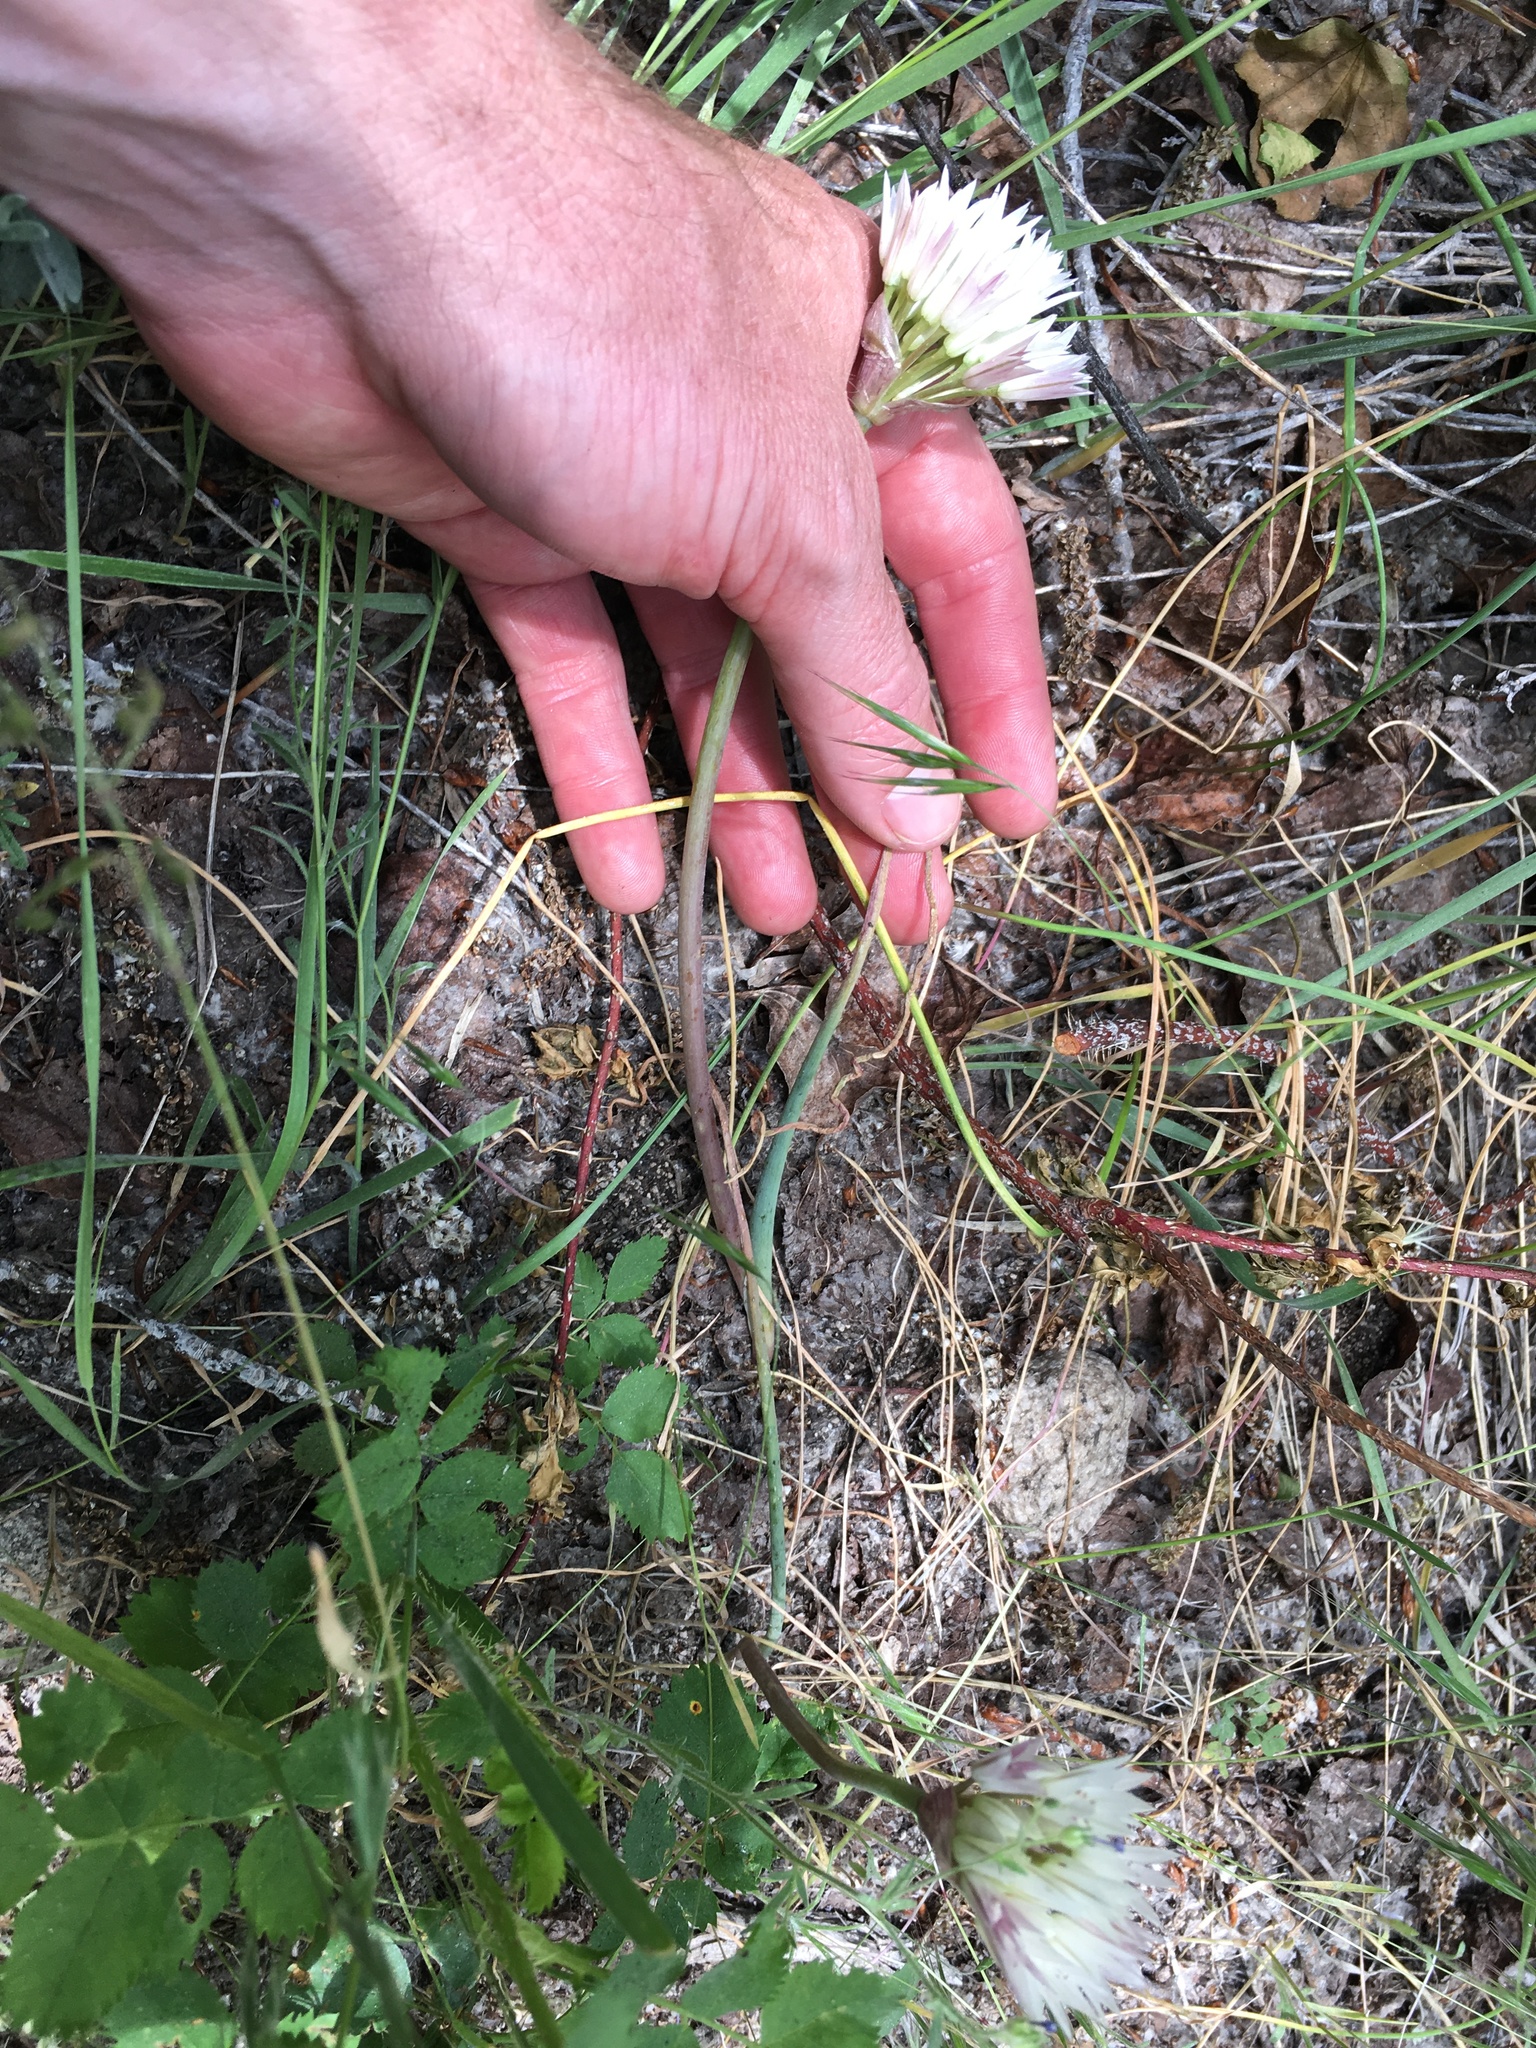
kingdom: Plantae
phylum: Tracheophyta
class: Liliopsida
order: Asparagales
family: Amaryllidaceae
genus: Allium
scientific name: Allium atrorubens
